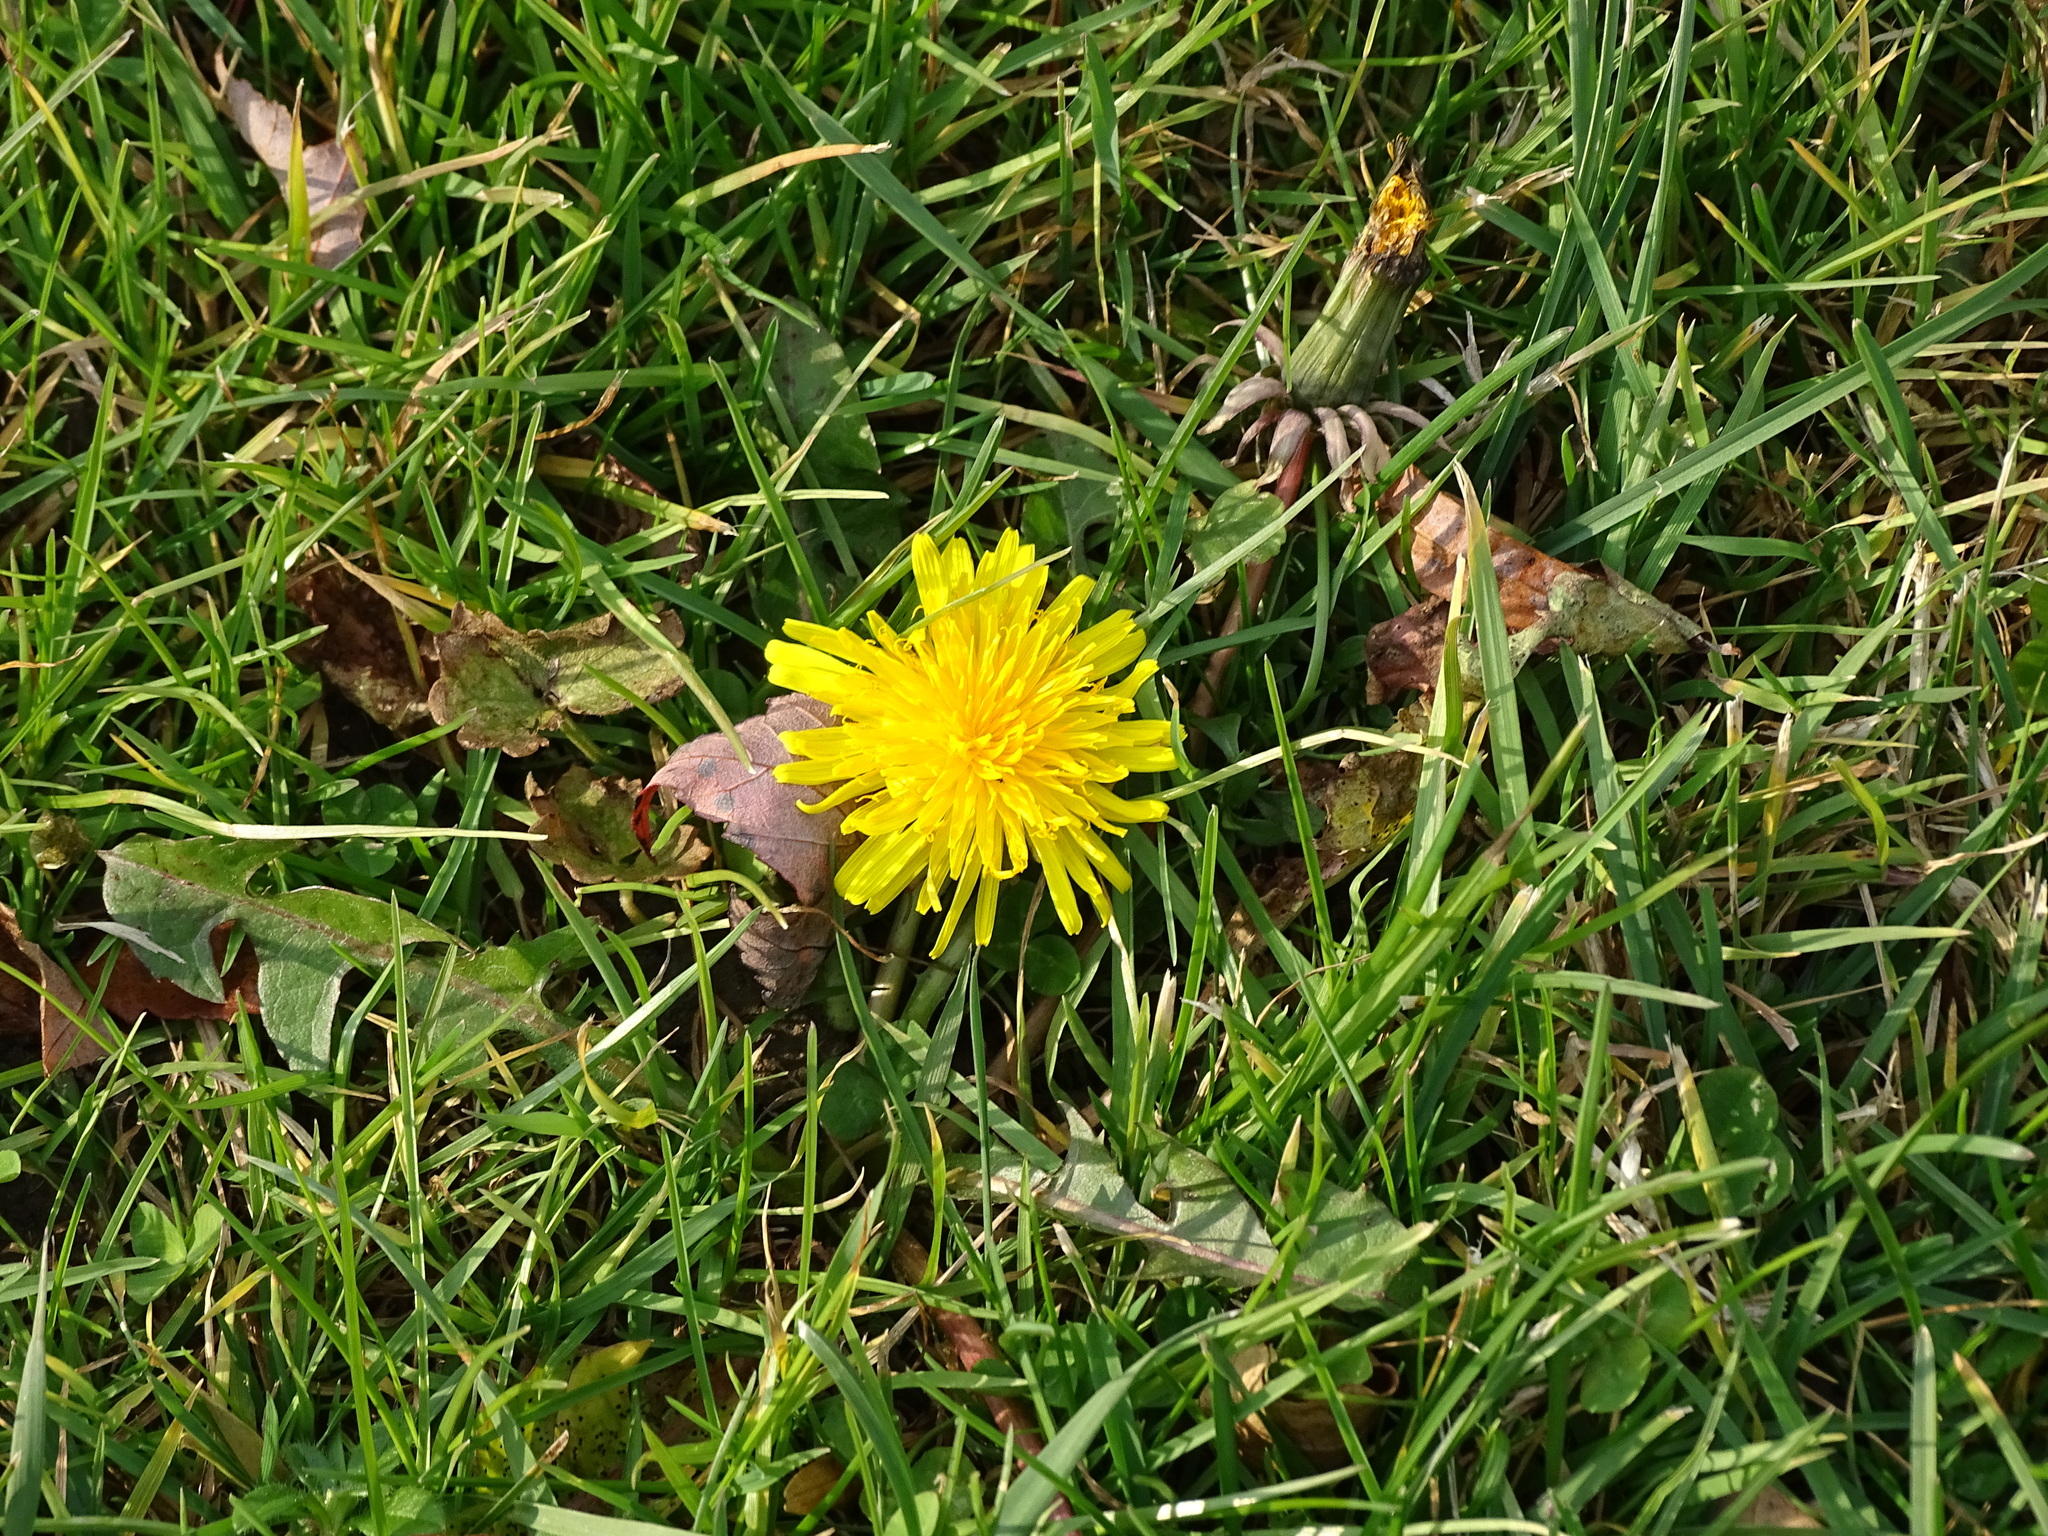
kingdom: Plantae
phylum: Tracheophyta
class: Magnoliopsida
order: Asterales
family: Asteraceae
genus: Taraxacum
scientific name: Taraxacum officinale
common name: Common dandelion
